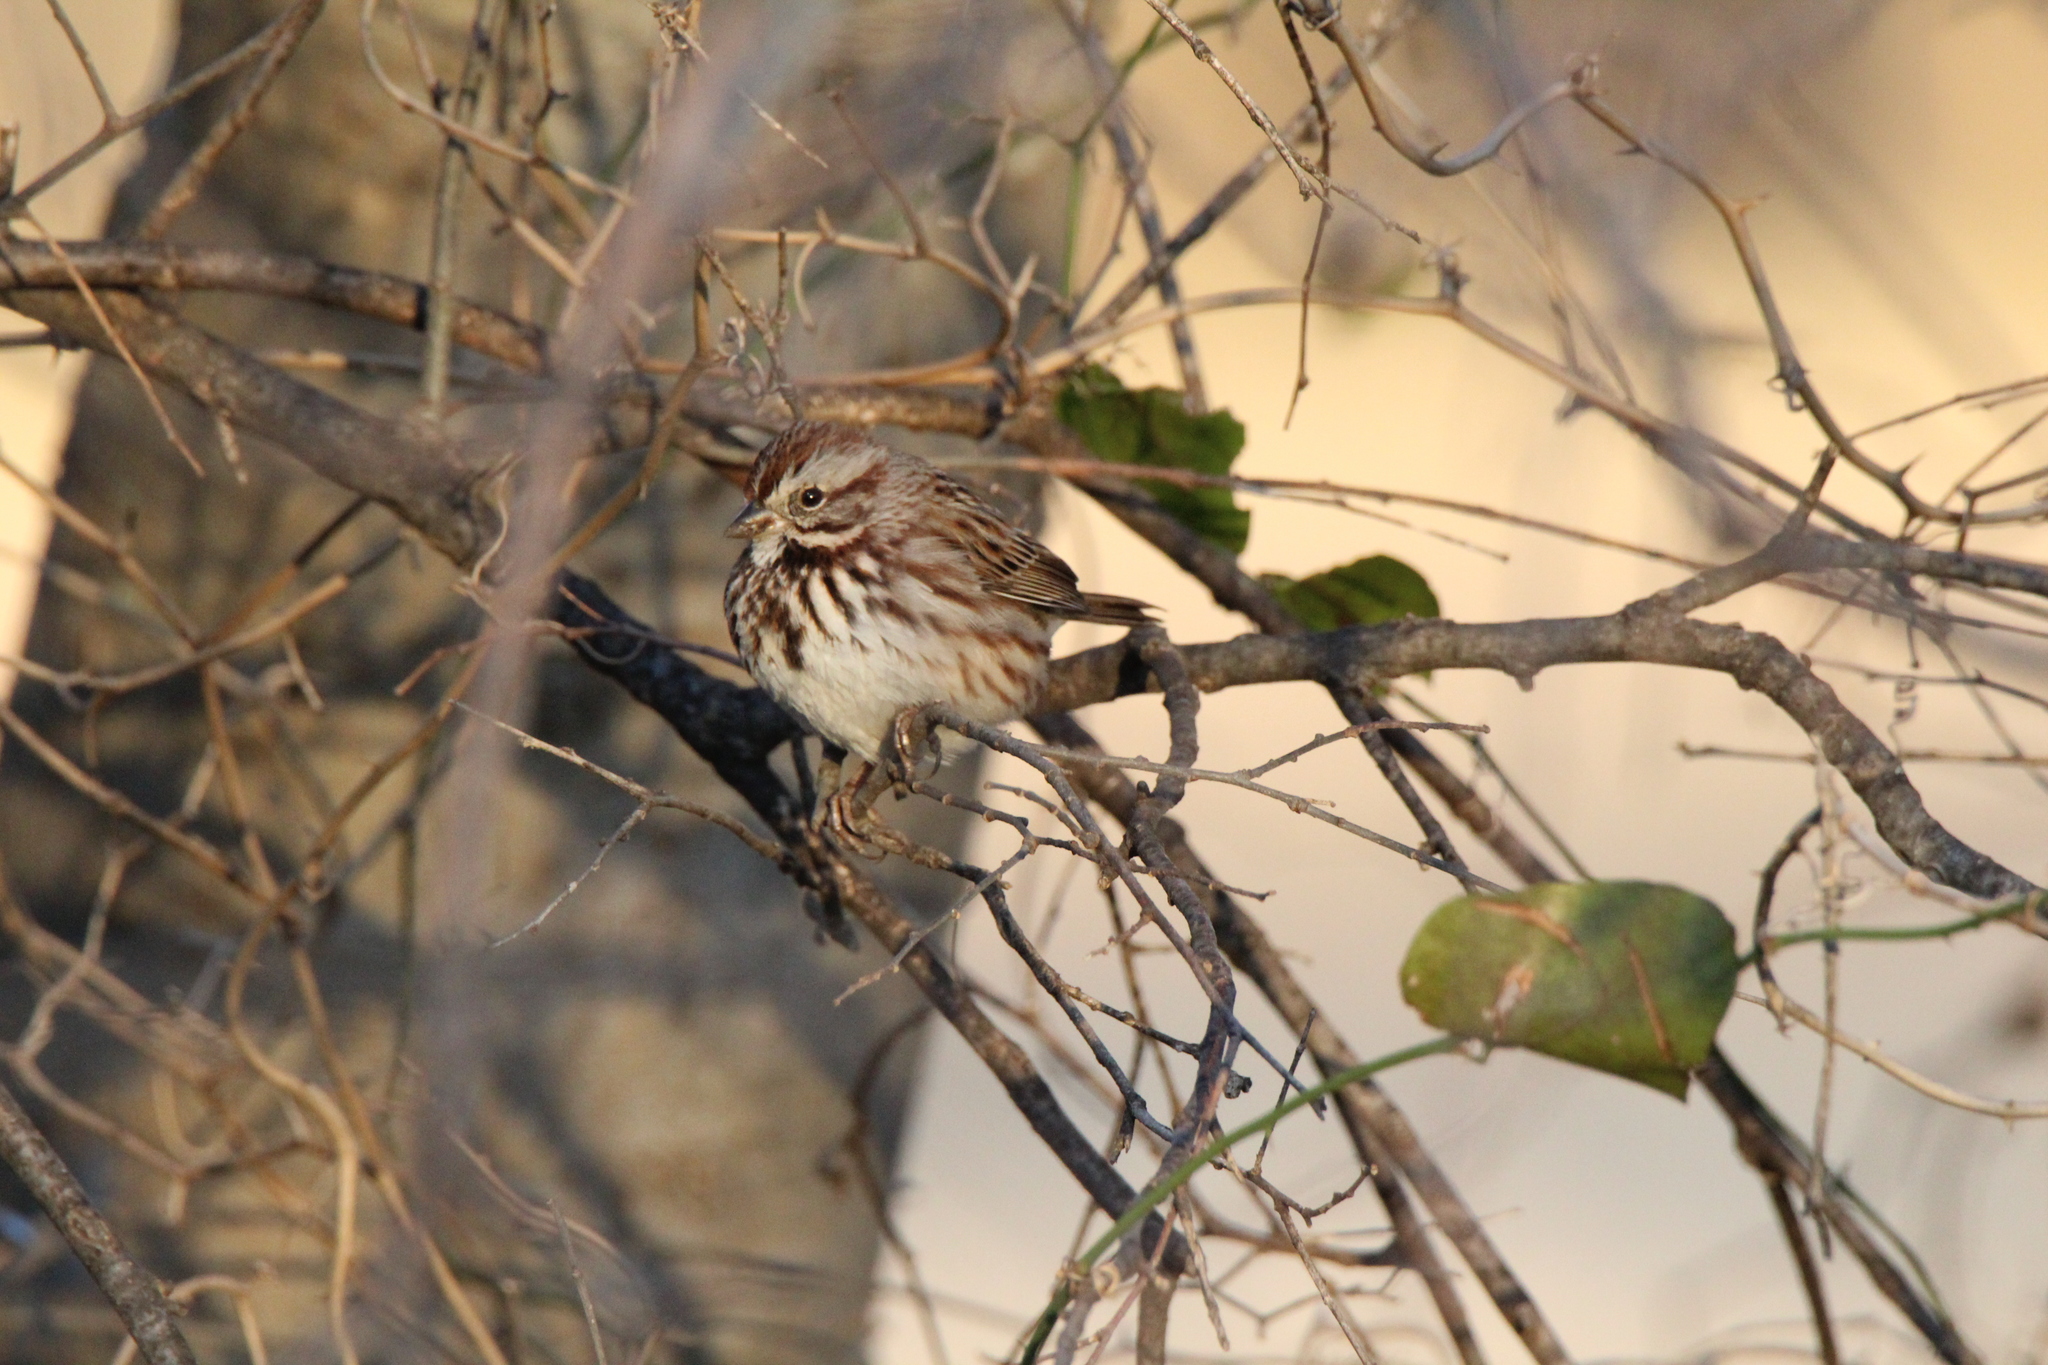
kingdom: Animalia
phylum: Chordata
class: Aves
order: Passeriformes
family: Passerellidae
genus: Melospiza
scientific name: Melospiza melodia
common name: Song sparrow
